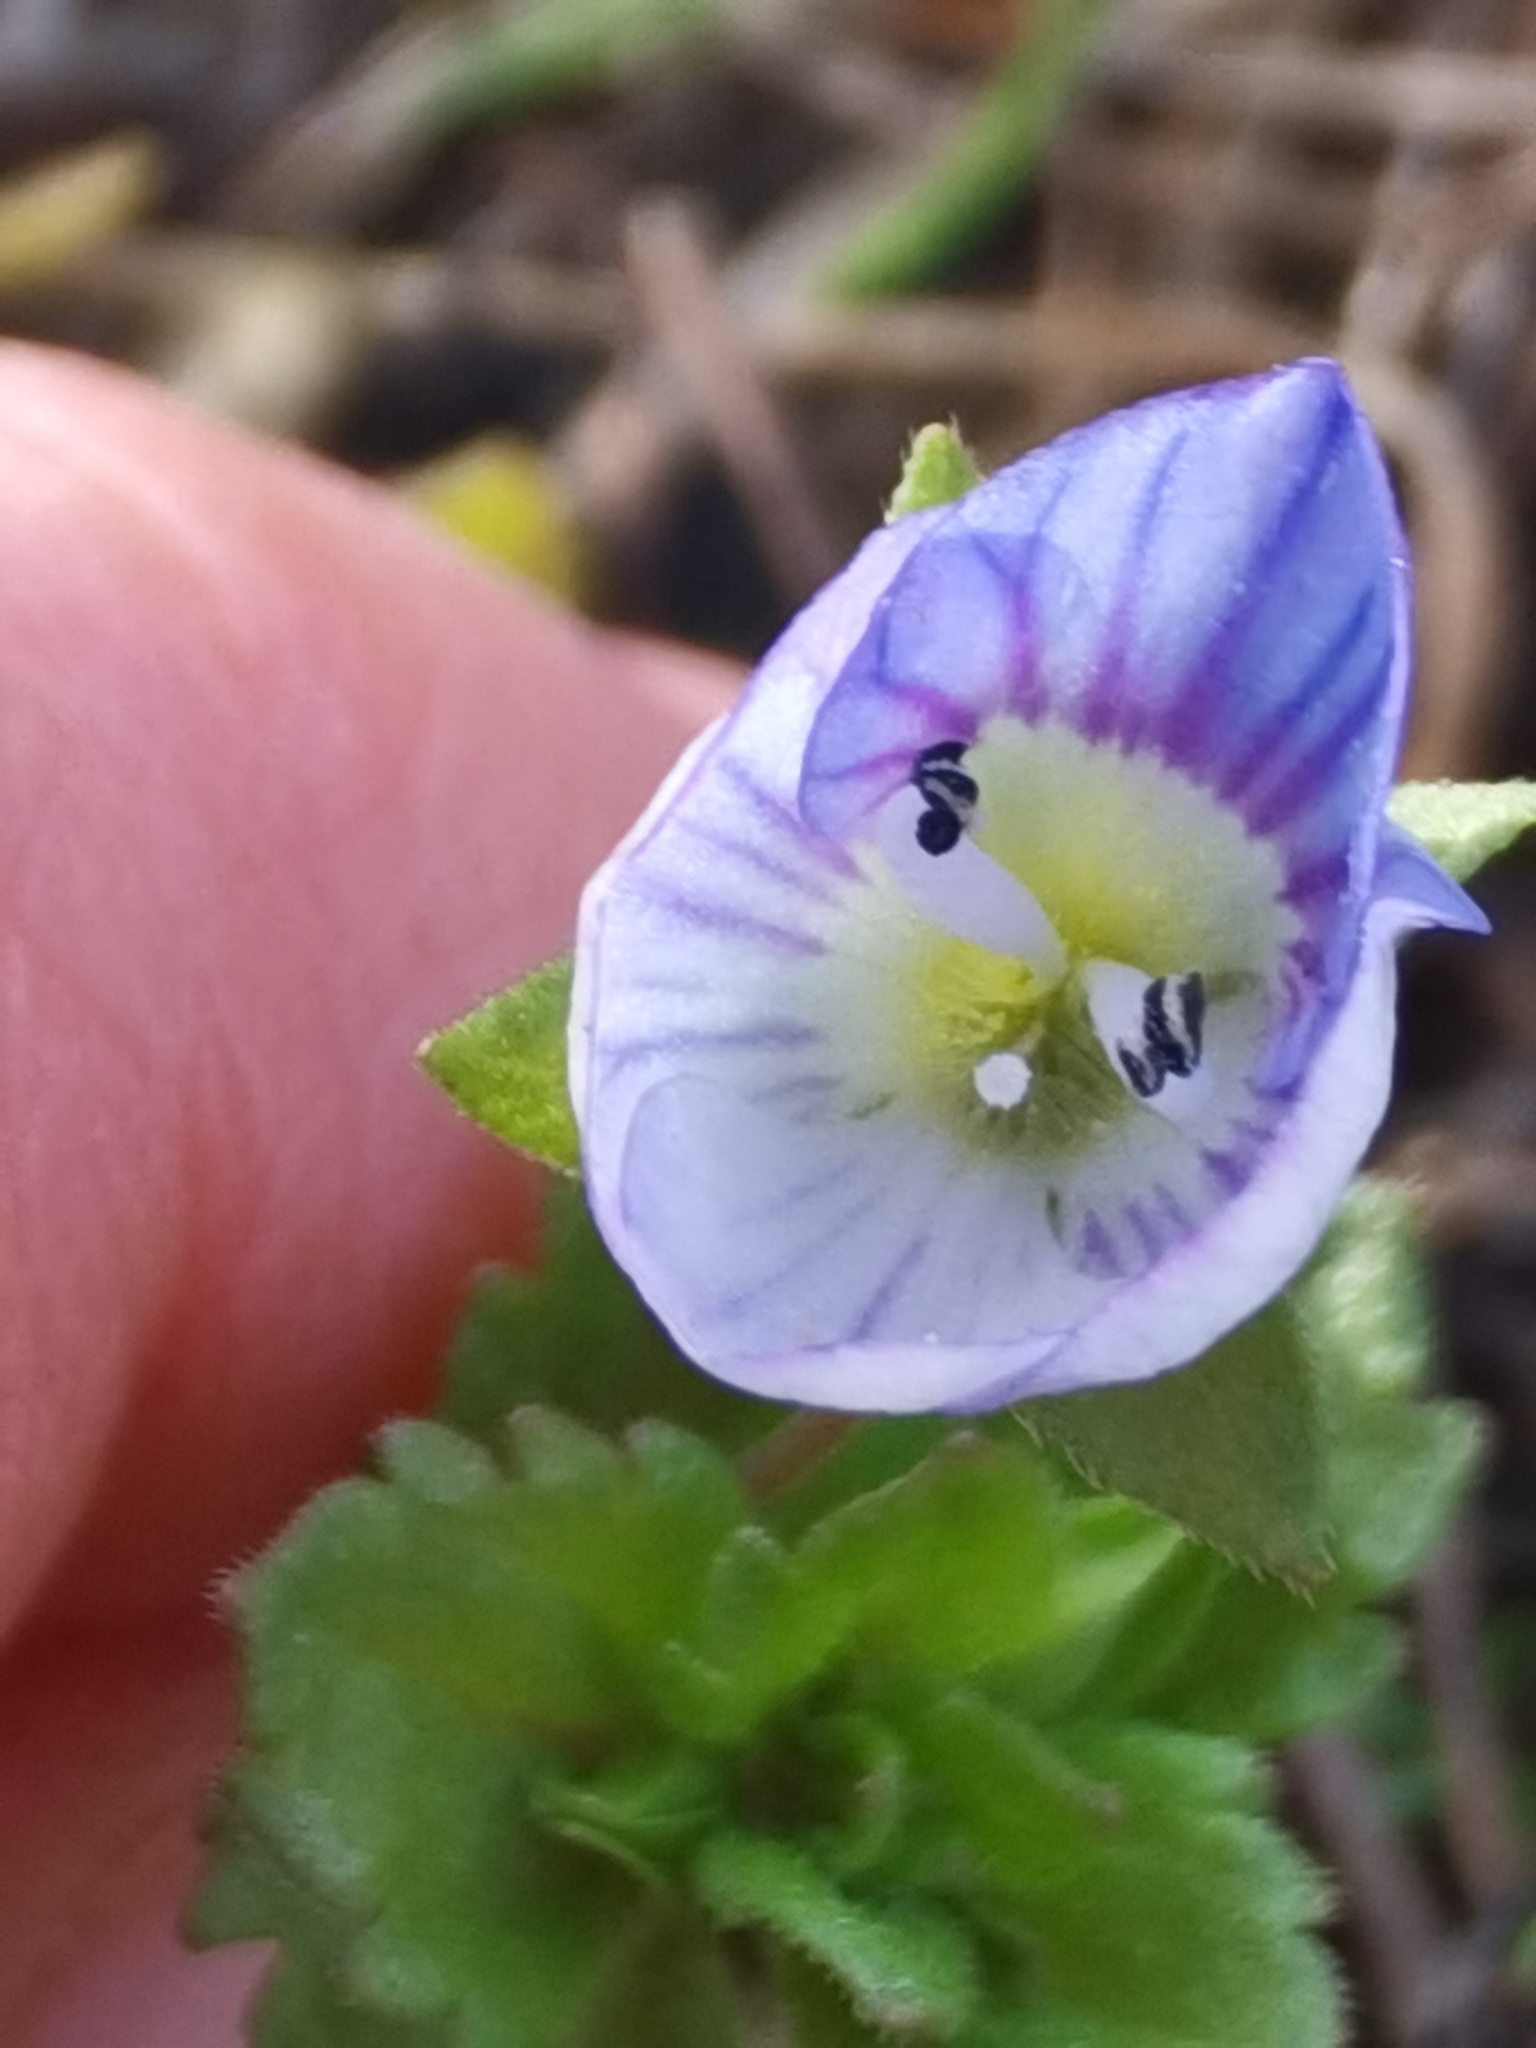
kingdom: Plantae
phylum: Tracheophyta
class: Magnoliopsida
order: Lamiales
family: Plantaginaceae
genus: Veronica
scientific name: Veronica persica
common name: Common field-speedwell
